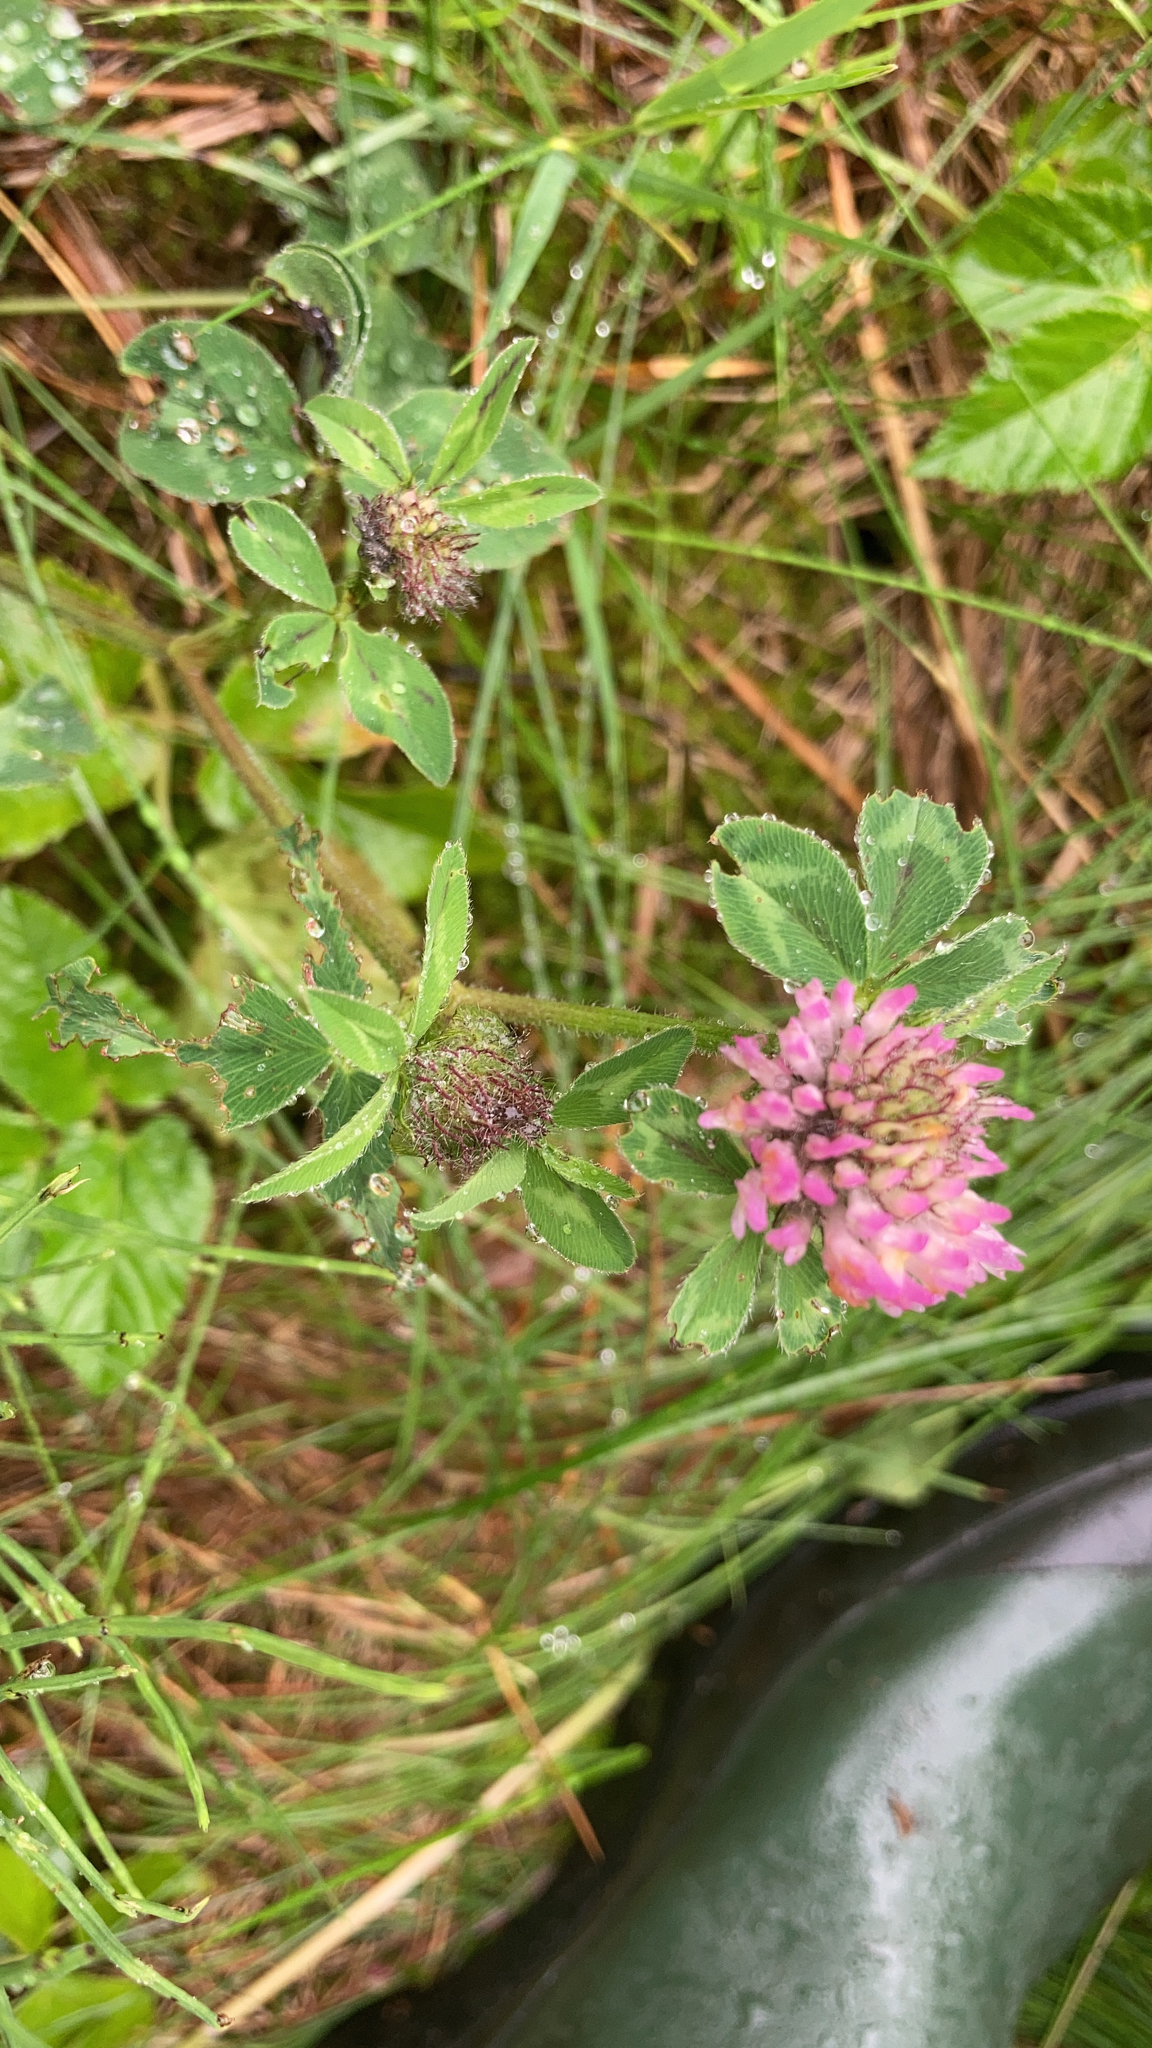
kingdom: Plantae
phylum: Tracheophyta
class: Magnoliopsida
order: Fabales
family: Fabaceae
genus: Trifolium
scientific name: Trifolium pratense
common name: Red clover
